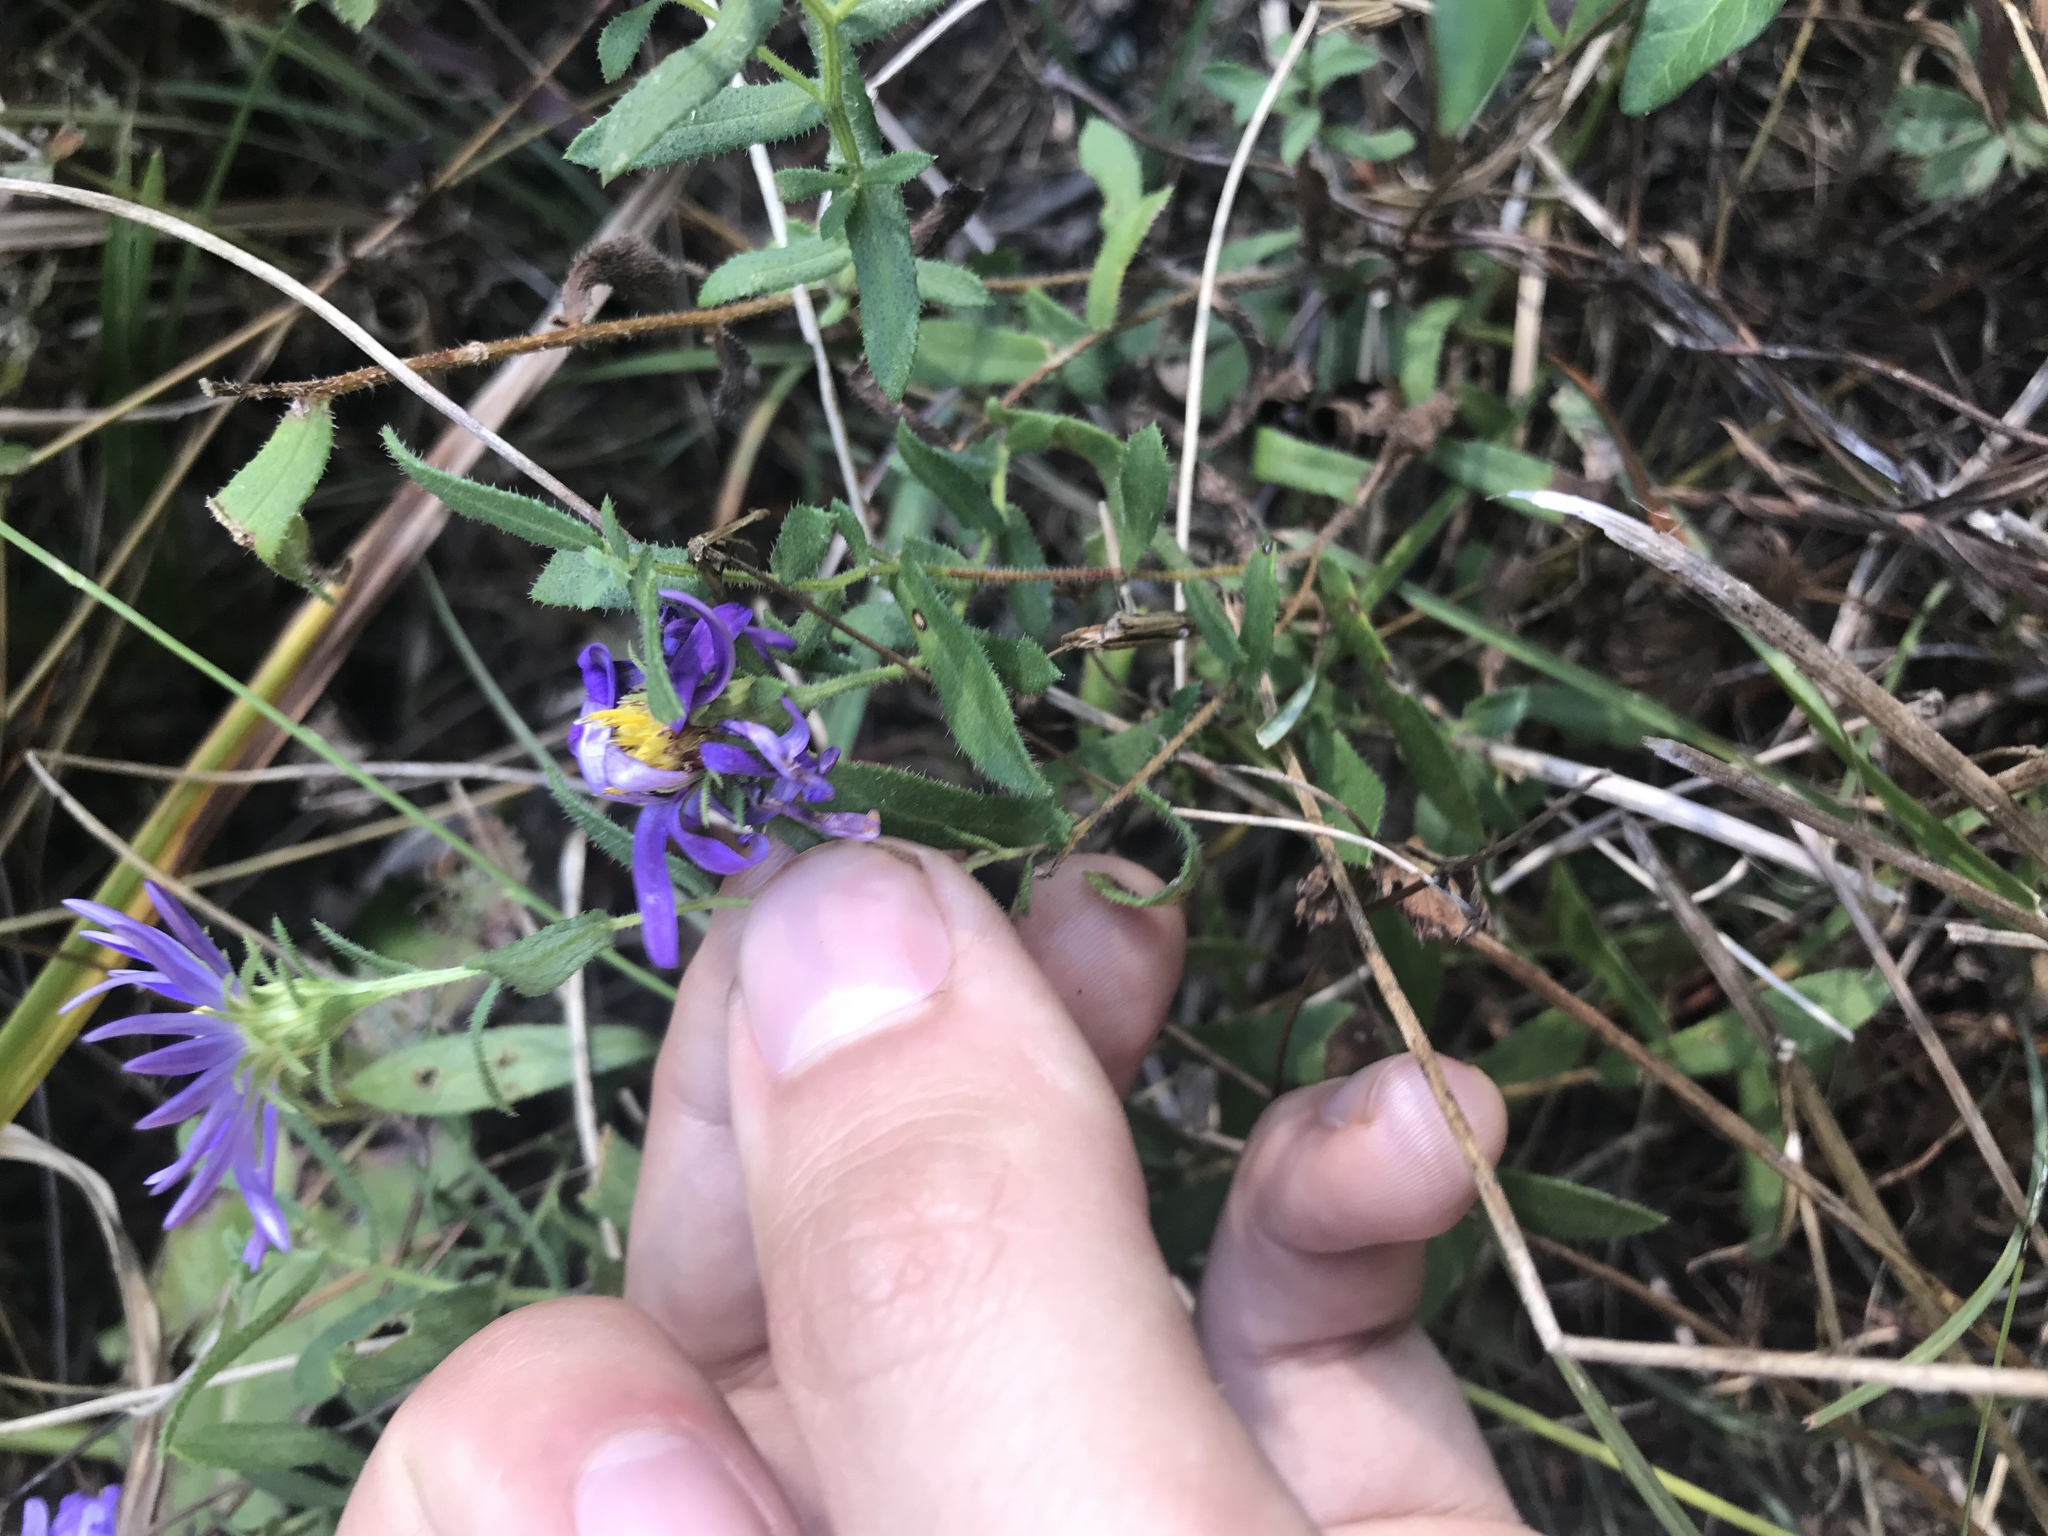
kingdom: Plantae
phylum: Tracheophyta
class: Magnoliopsida
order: Asterales
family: Asteraceae
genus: Symphyotrichum
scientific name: Symphyotrichum grandiflorum
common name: Big-head aster
